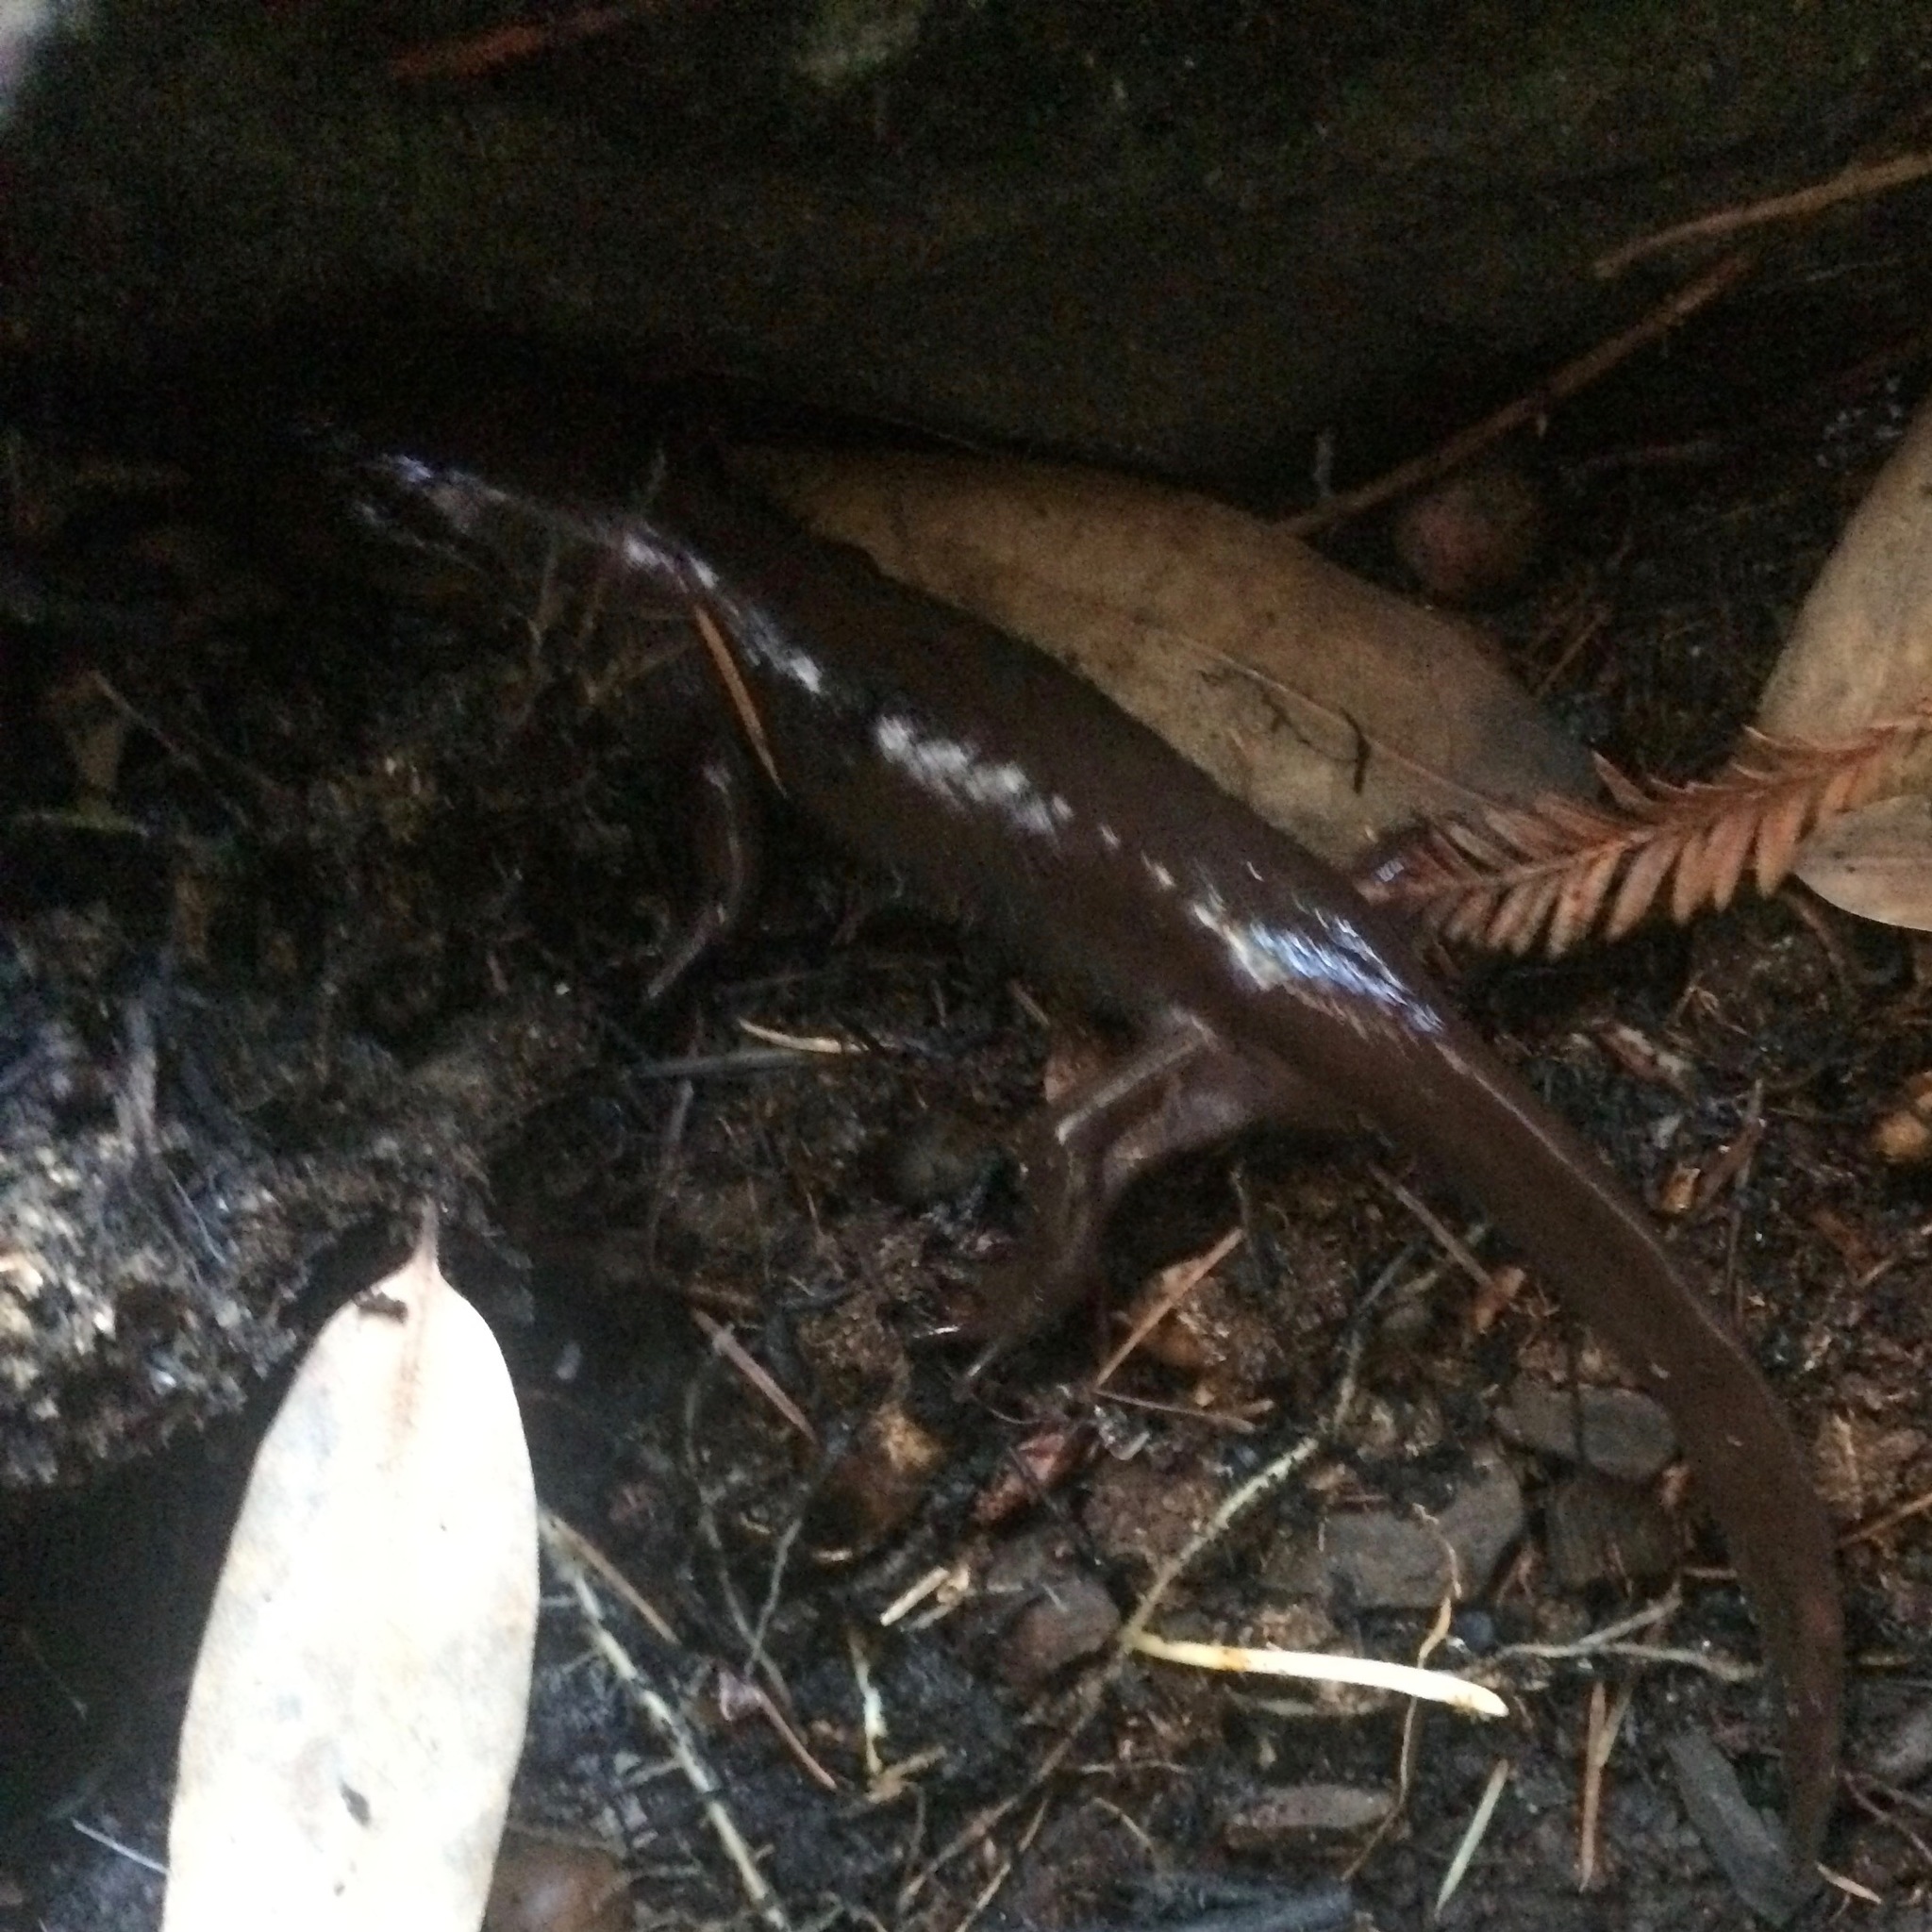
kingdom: Animalia
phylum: Chordata
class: Amphibia
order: Caudata
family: Ambystomatidae
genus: Dicamptodon
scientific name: Dicamptodon ensatus
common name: California giant salamander
